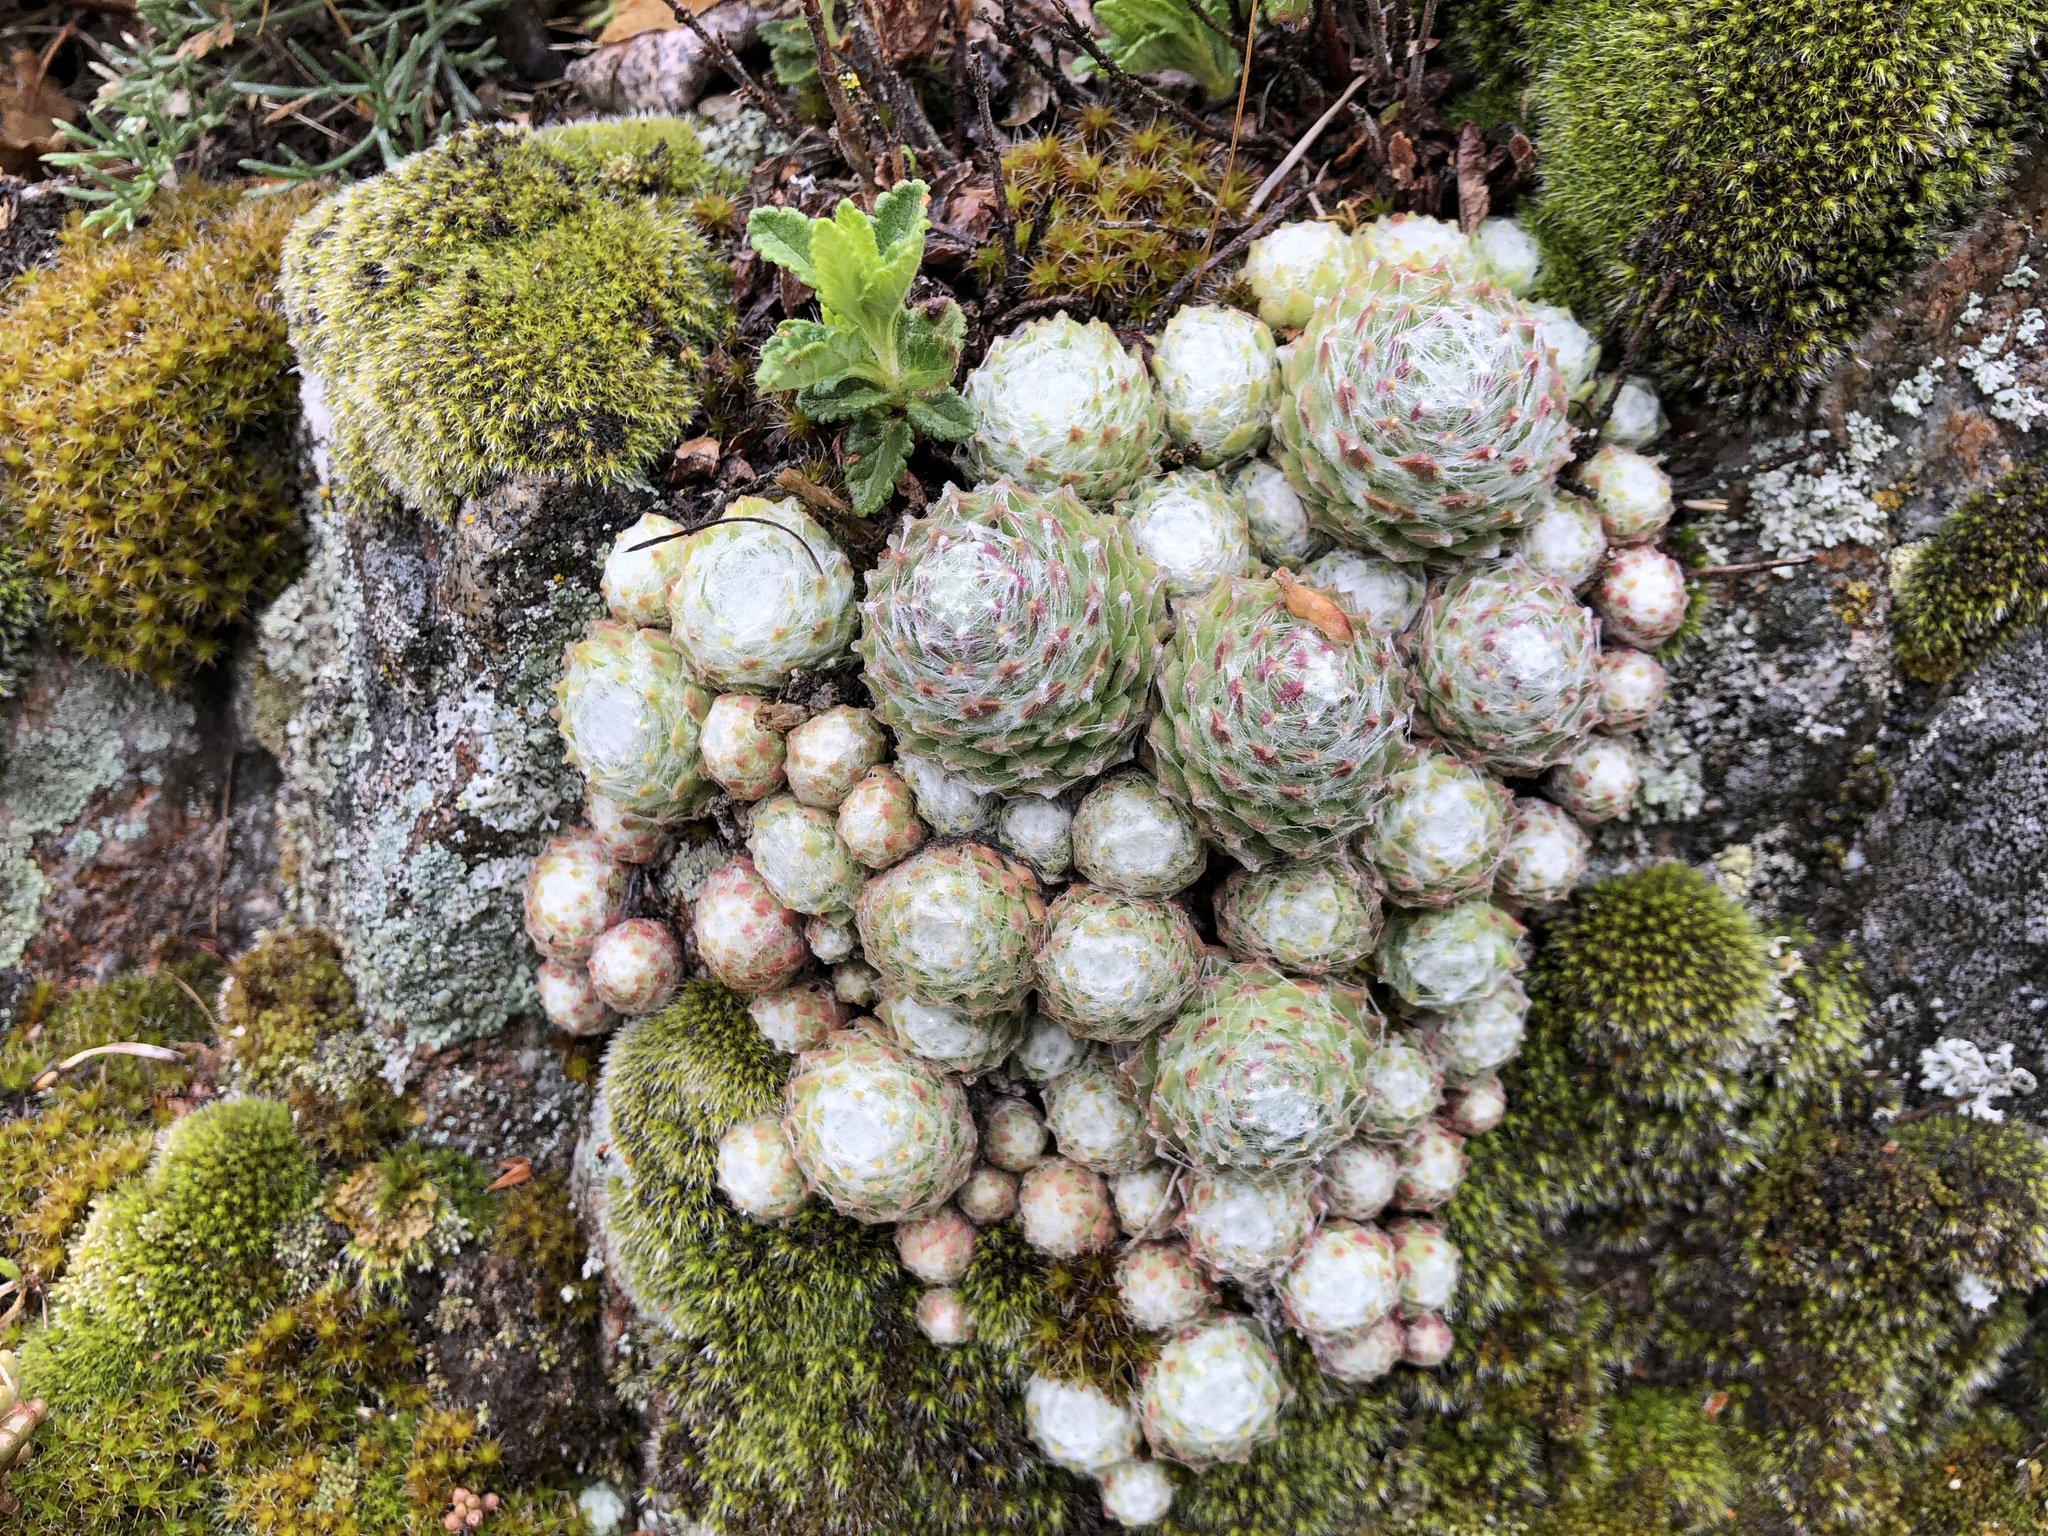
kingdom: Plantae
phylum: Tracheophyta
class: Magnoliopsida
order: Saxifragales
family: Crassulaceae
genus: Sempervivum
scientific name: Sempervivum arachnoideum
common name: Cobweb house-leek
